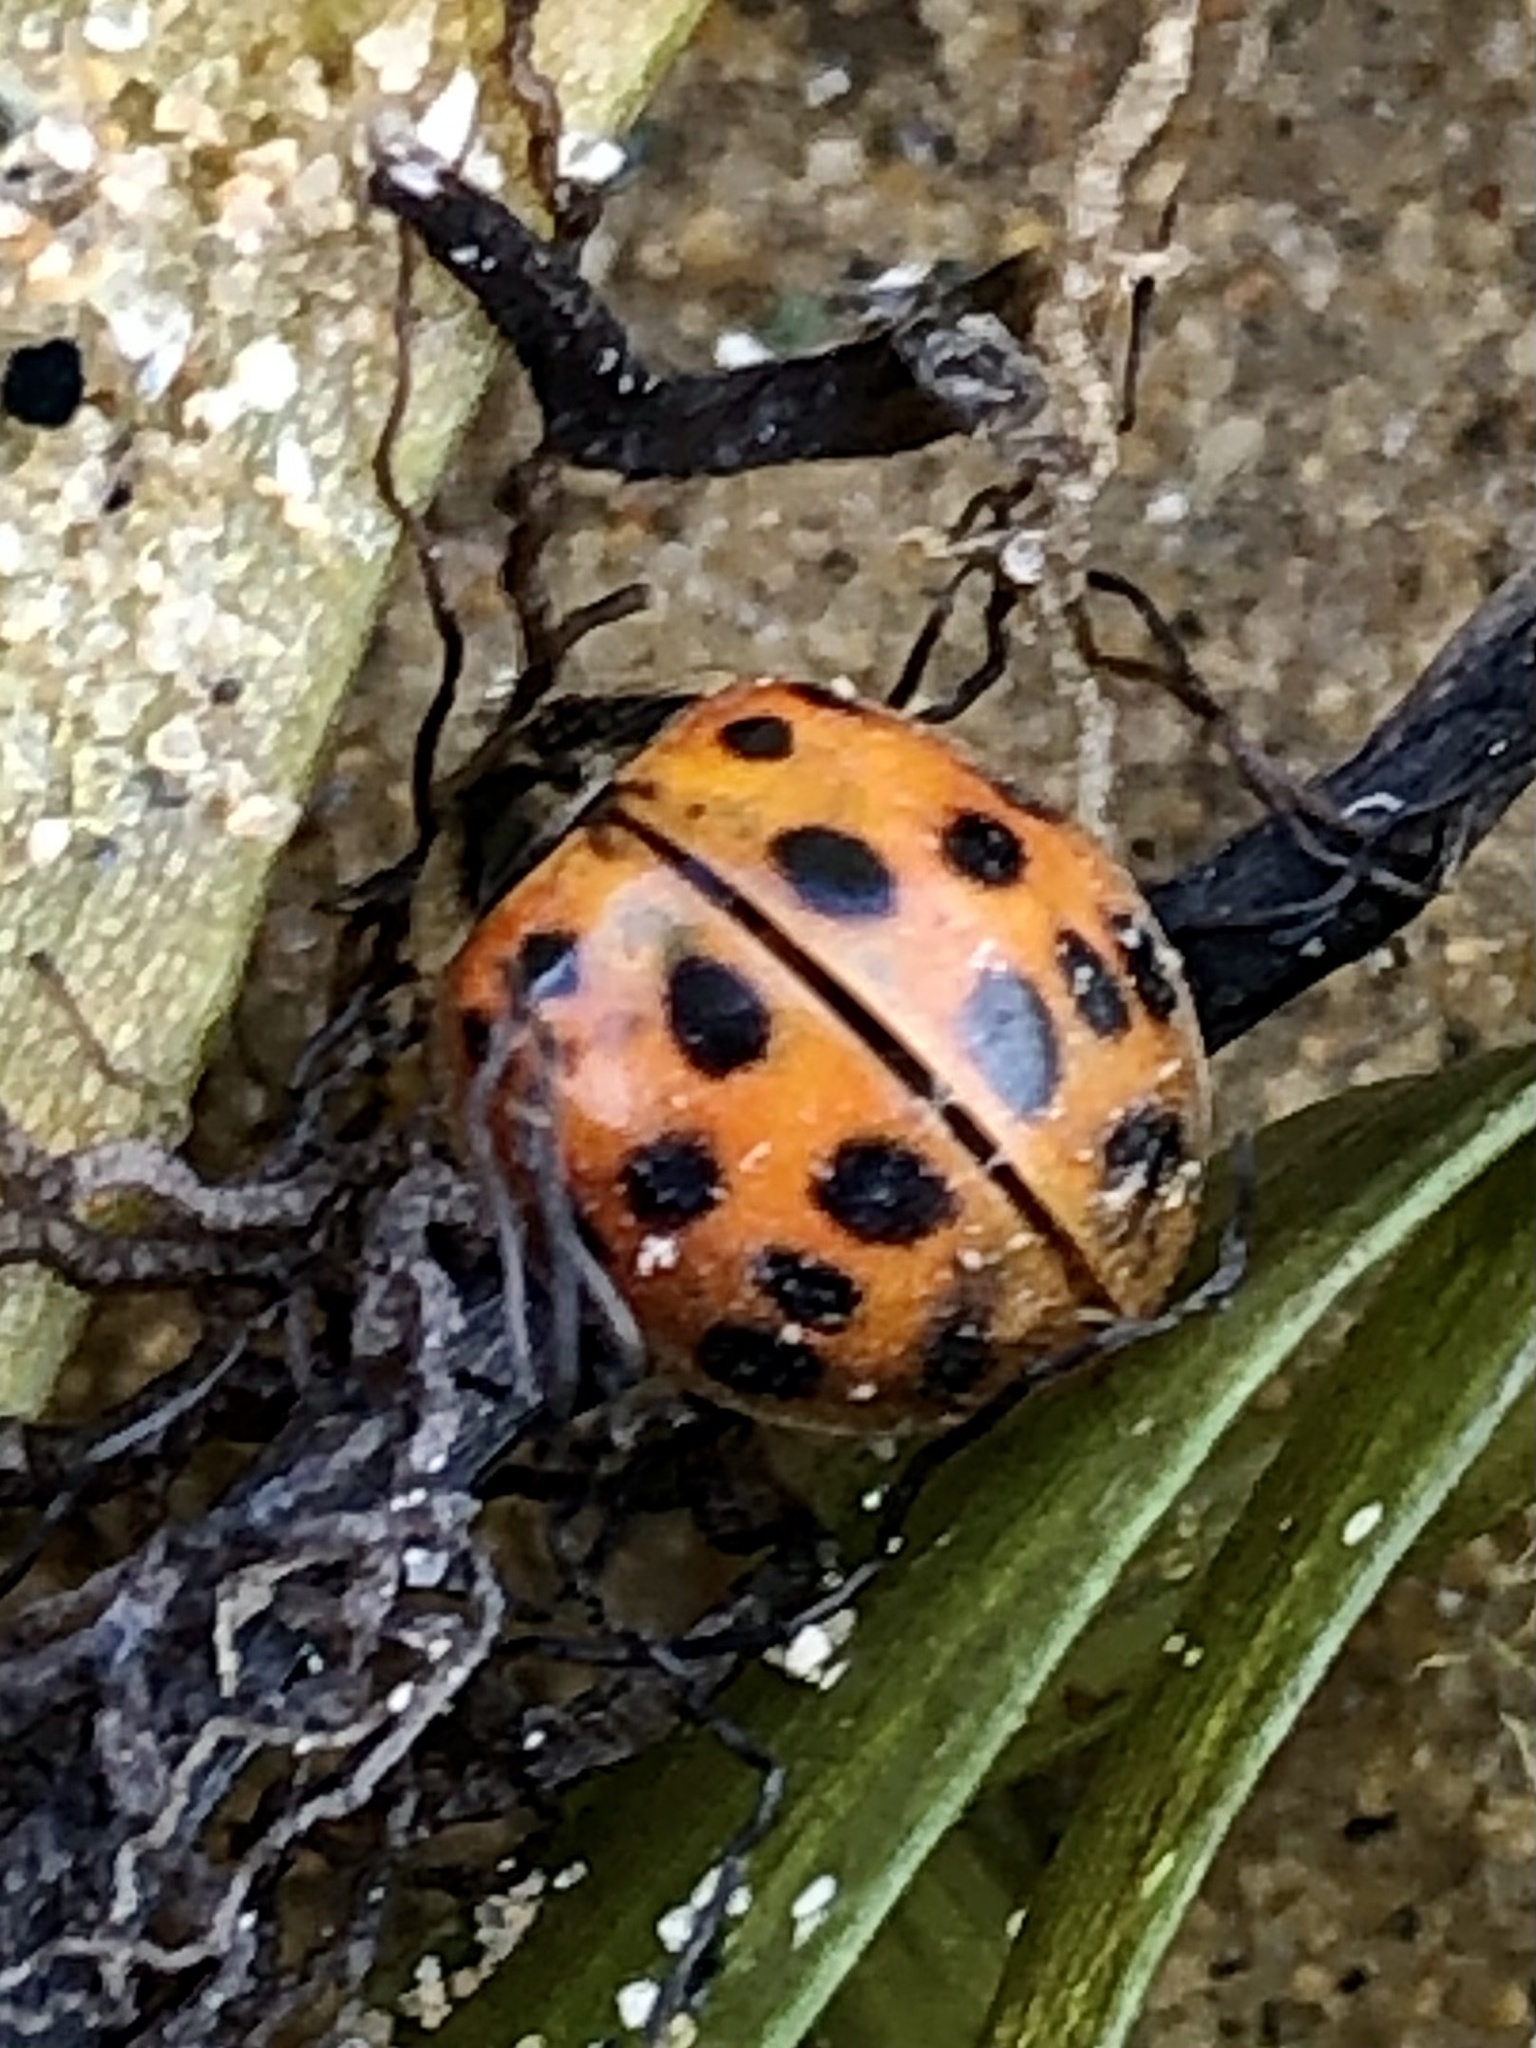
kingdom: Animalia
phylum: Arthropoda
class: Insecta
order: Coleoptera
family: Coccinellidae
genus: Harmonia
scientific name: Harmonia axyridis
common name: Harlequin ladybird
